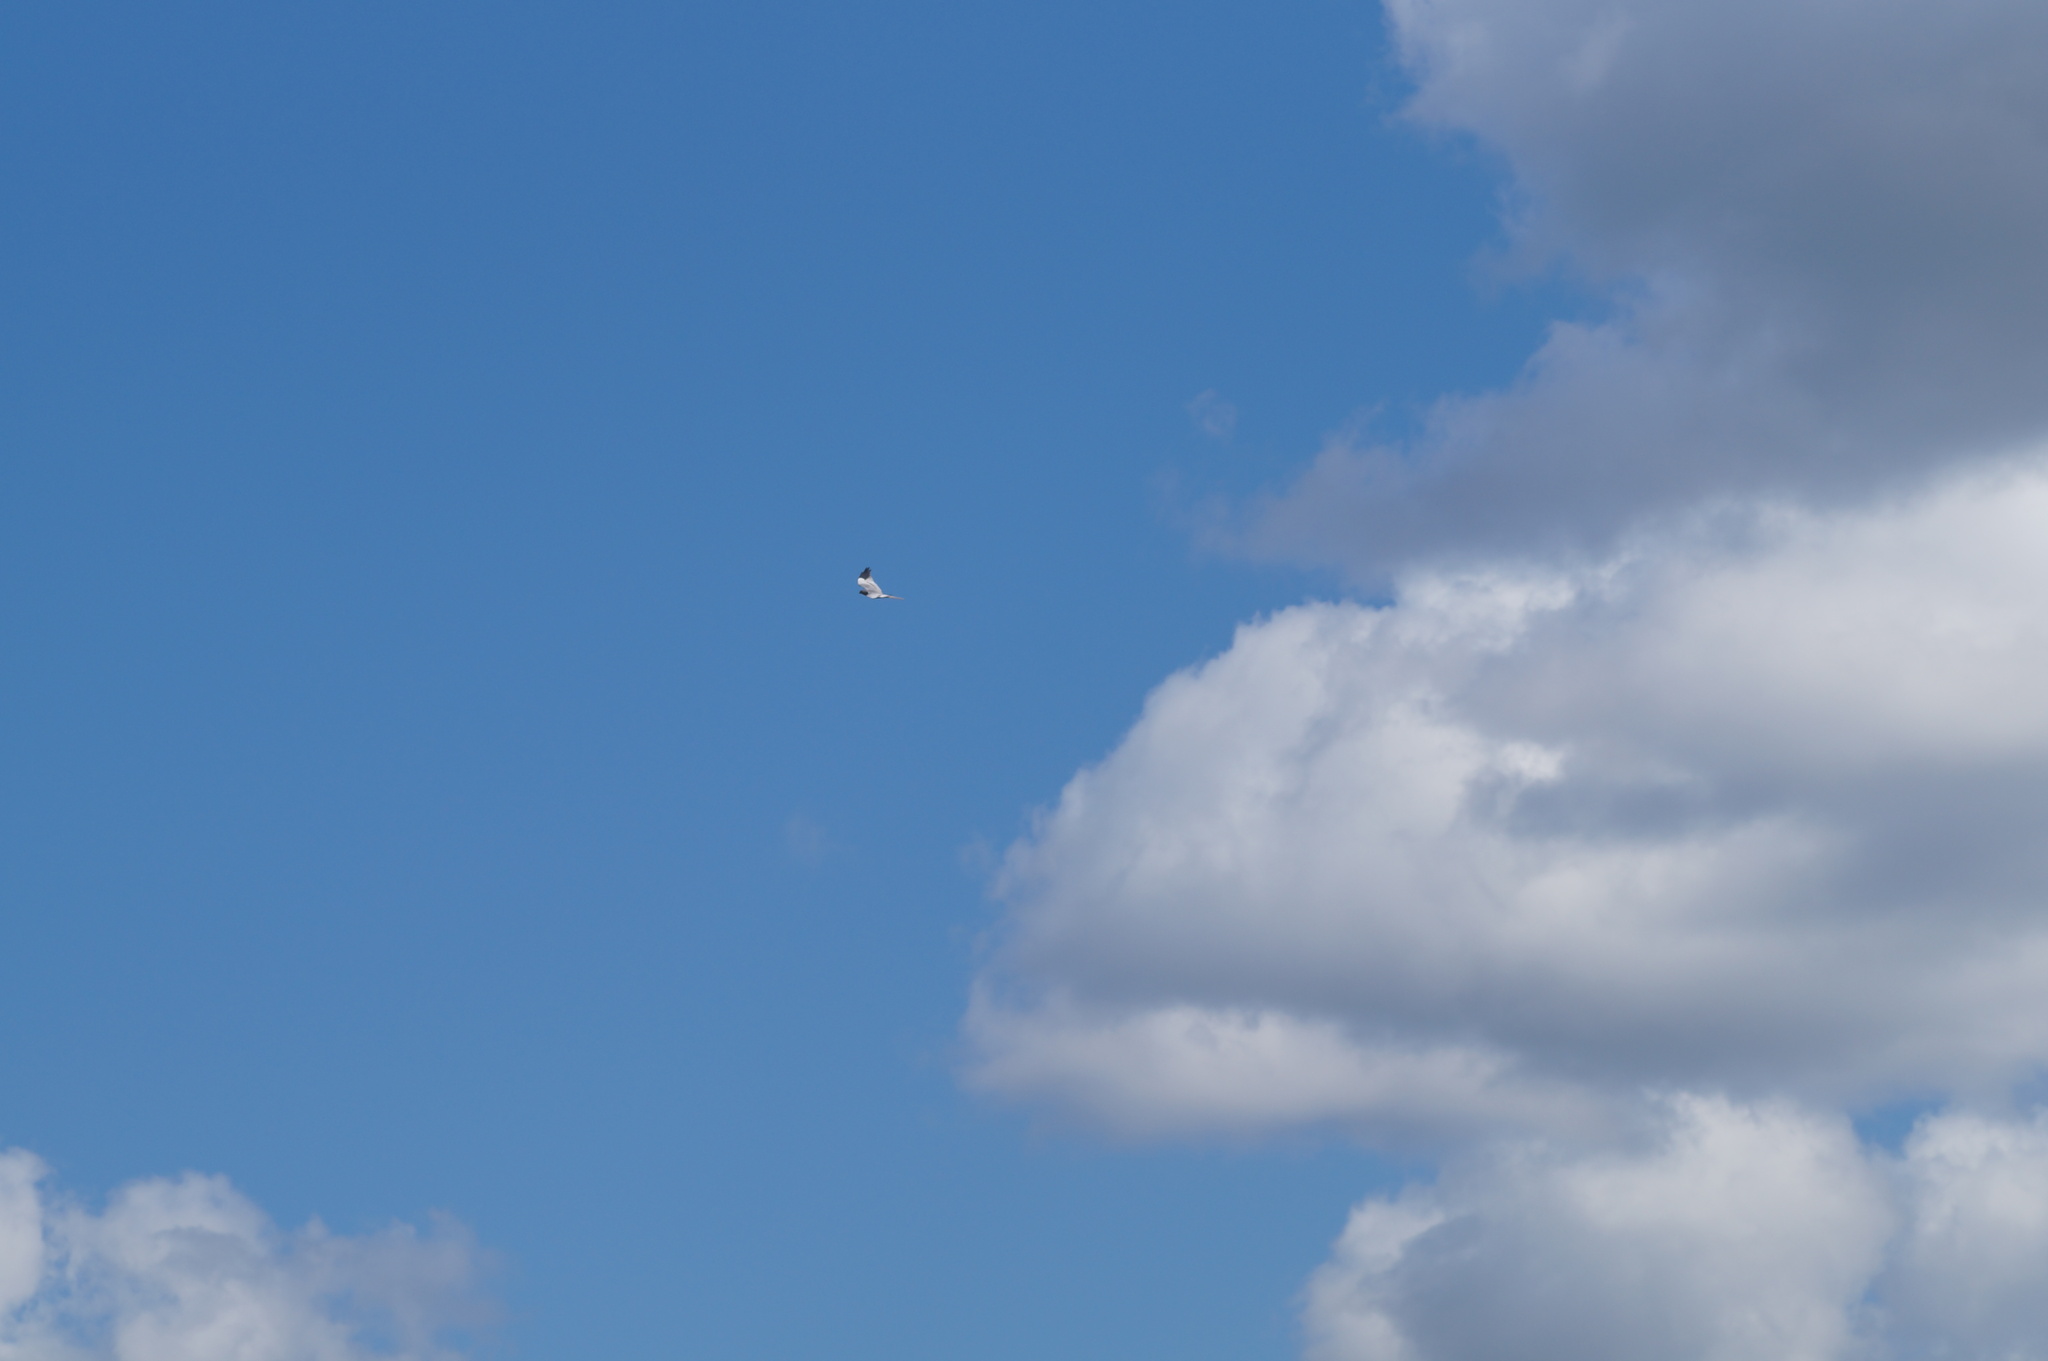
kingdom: Animalia
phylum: Chordata
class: Aves
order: Accipitriformes
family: Accipitridae
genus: Circus
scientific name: Circus pygargus
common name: Montagu's harrier
